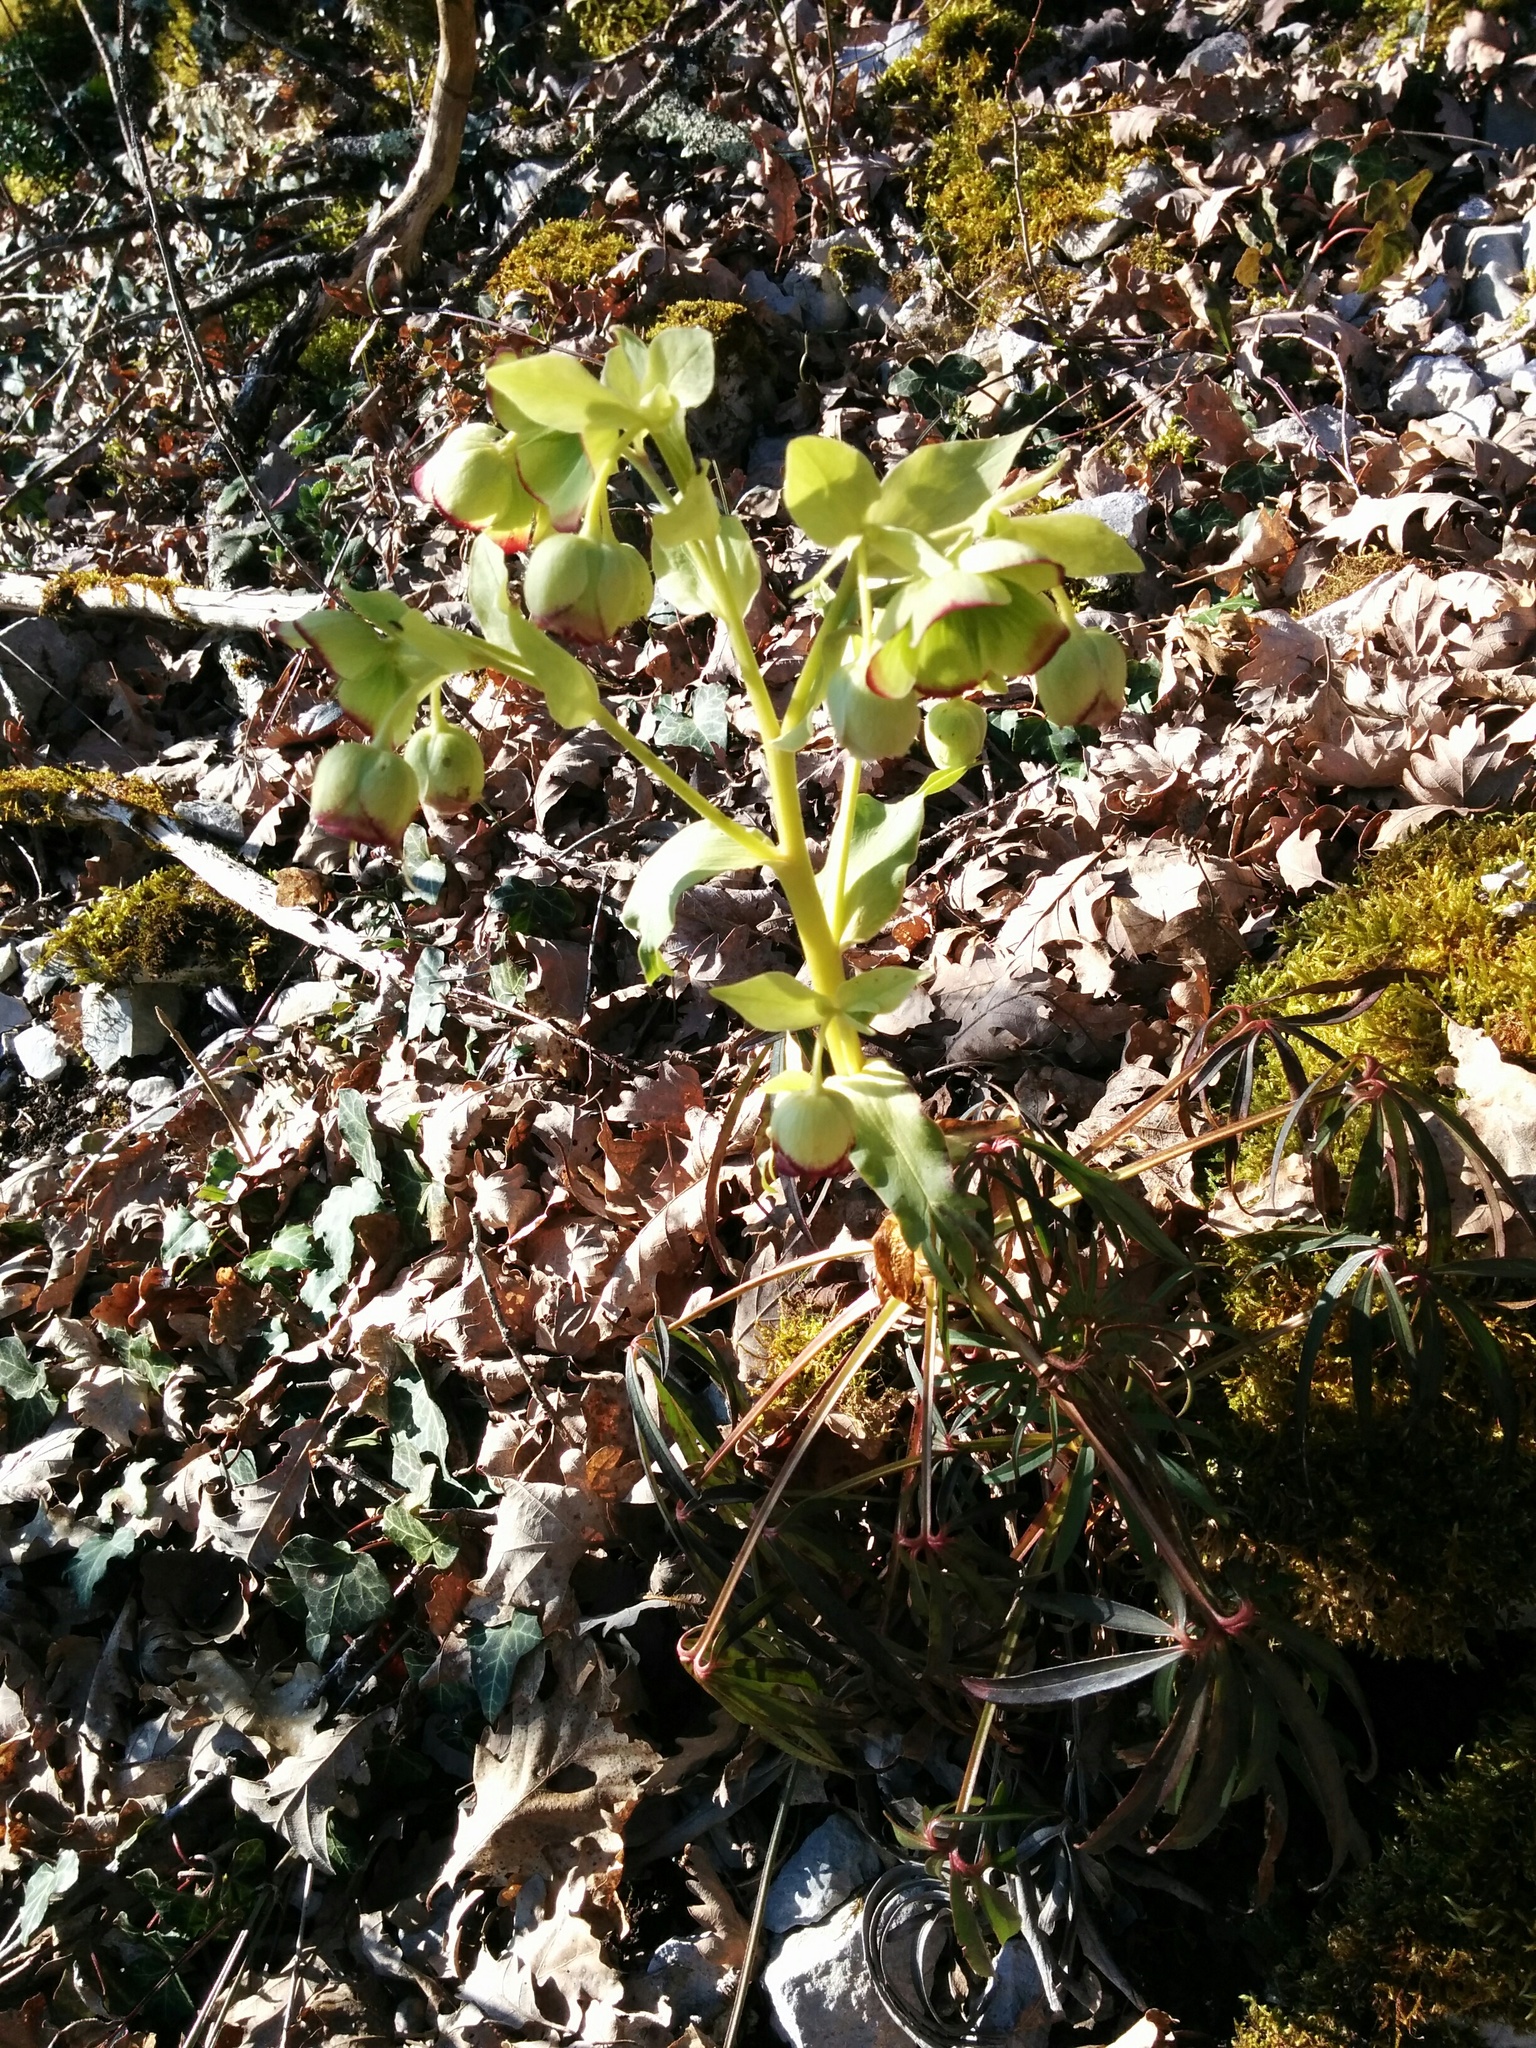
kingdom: Plantae
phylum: Tracheophyta
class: Magnoliopsida
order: Ranunculales
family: Ranunculaceae
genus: Helleborus
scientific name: Helleborus foetidus
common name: Stinking hellebore
